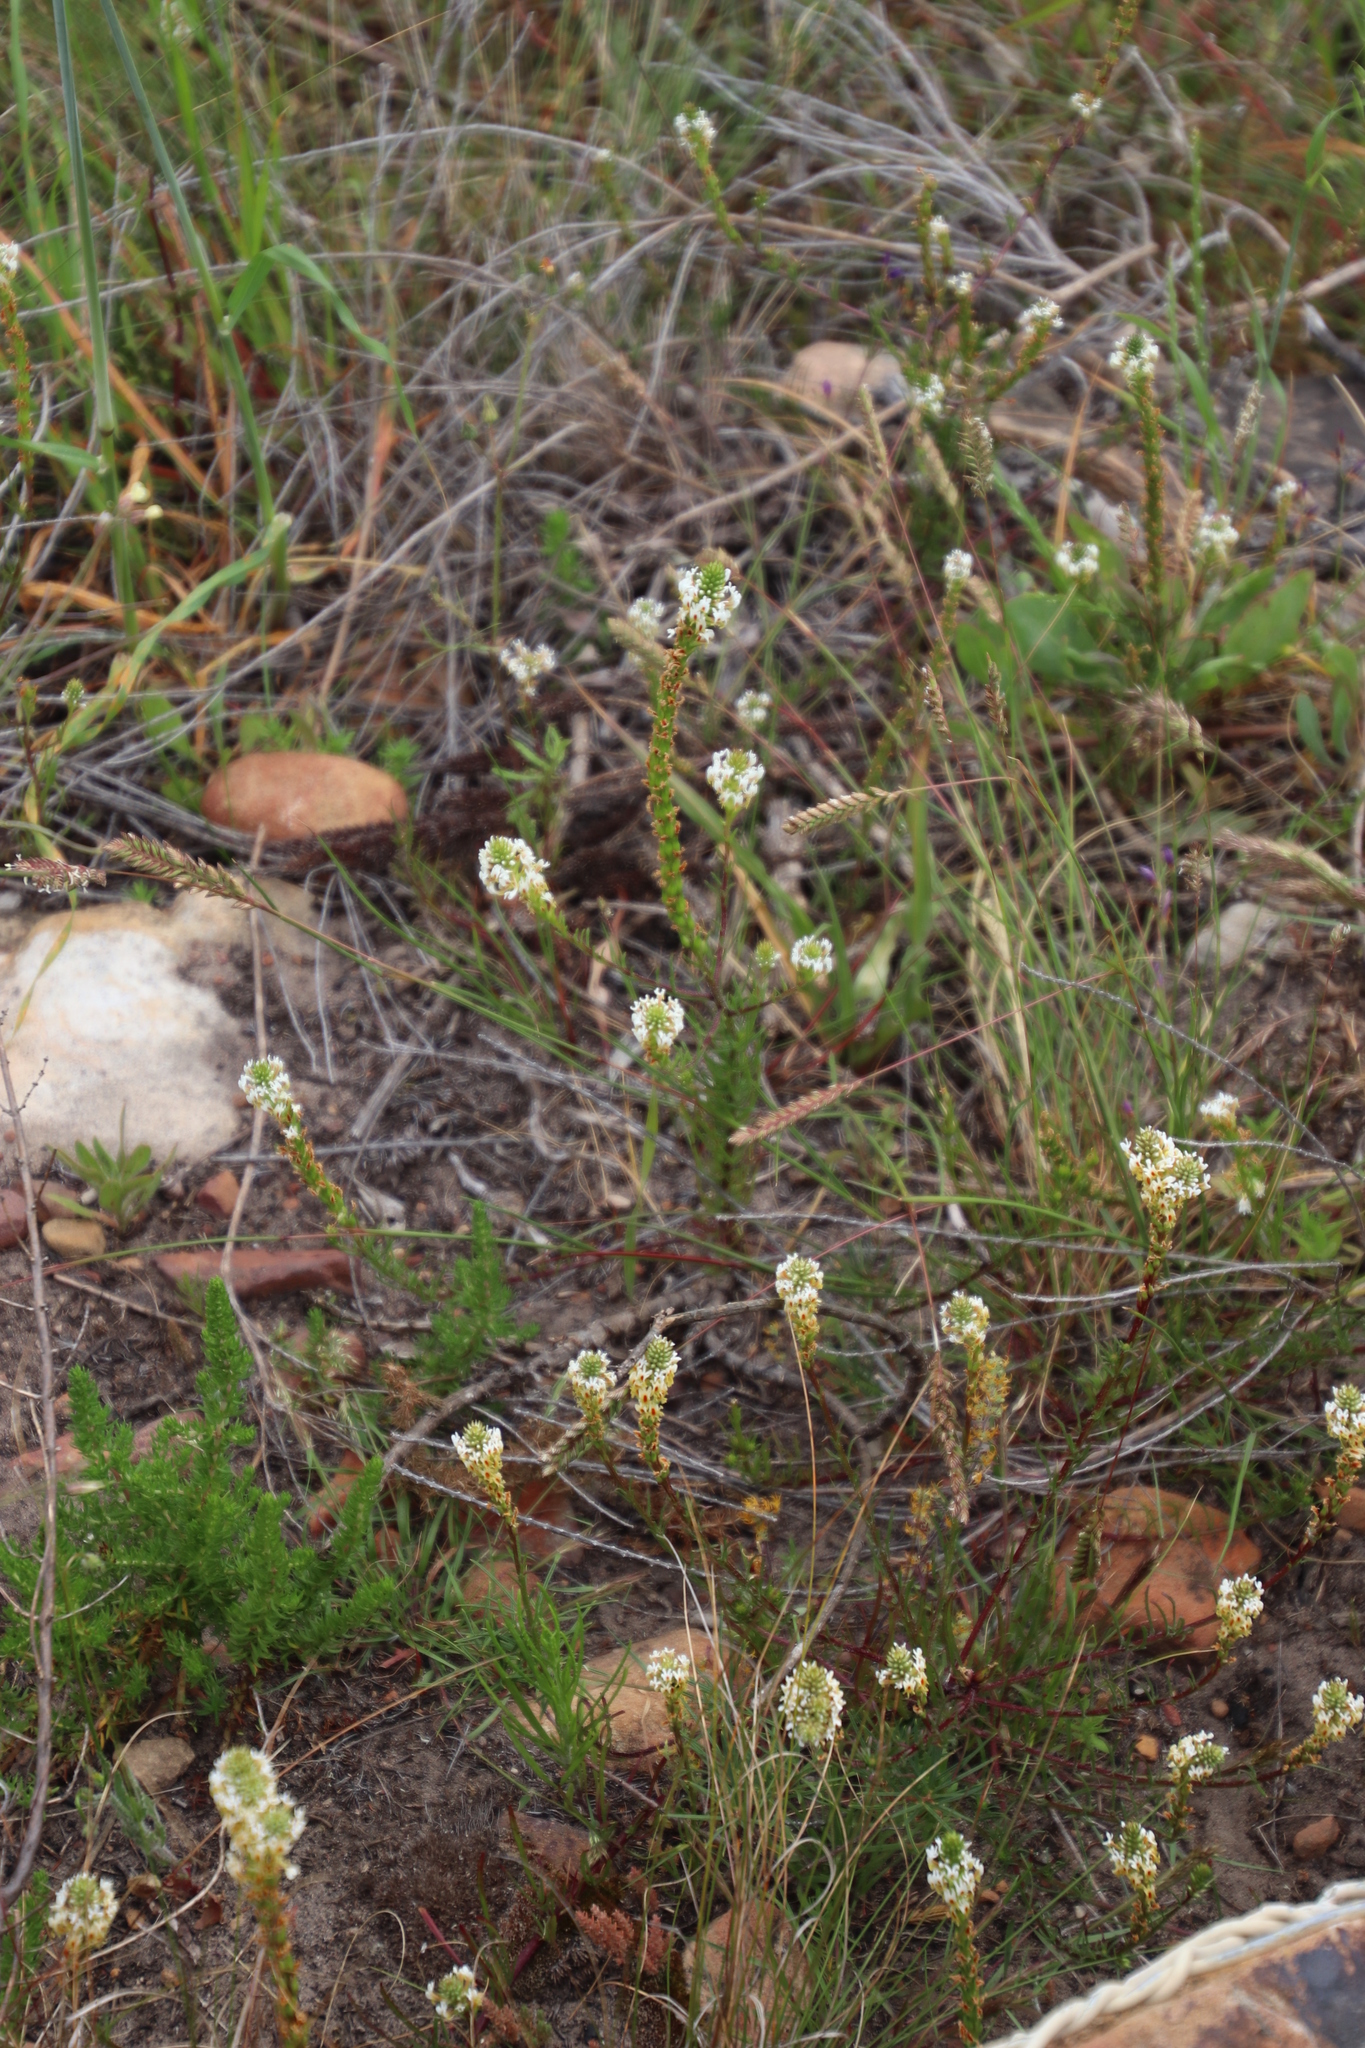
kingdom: Plantae
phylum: Tracheophyta
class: Magnoliopsida
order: Lamiales
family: Scrophulariaceae
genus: Hebenstretia
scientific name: Hebenstretia repens
